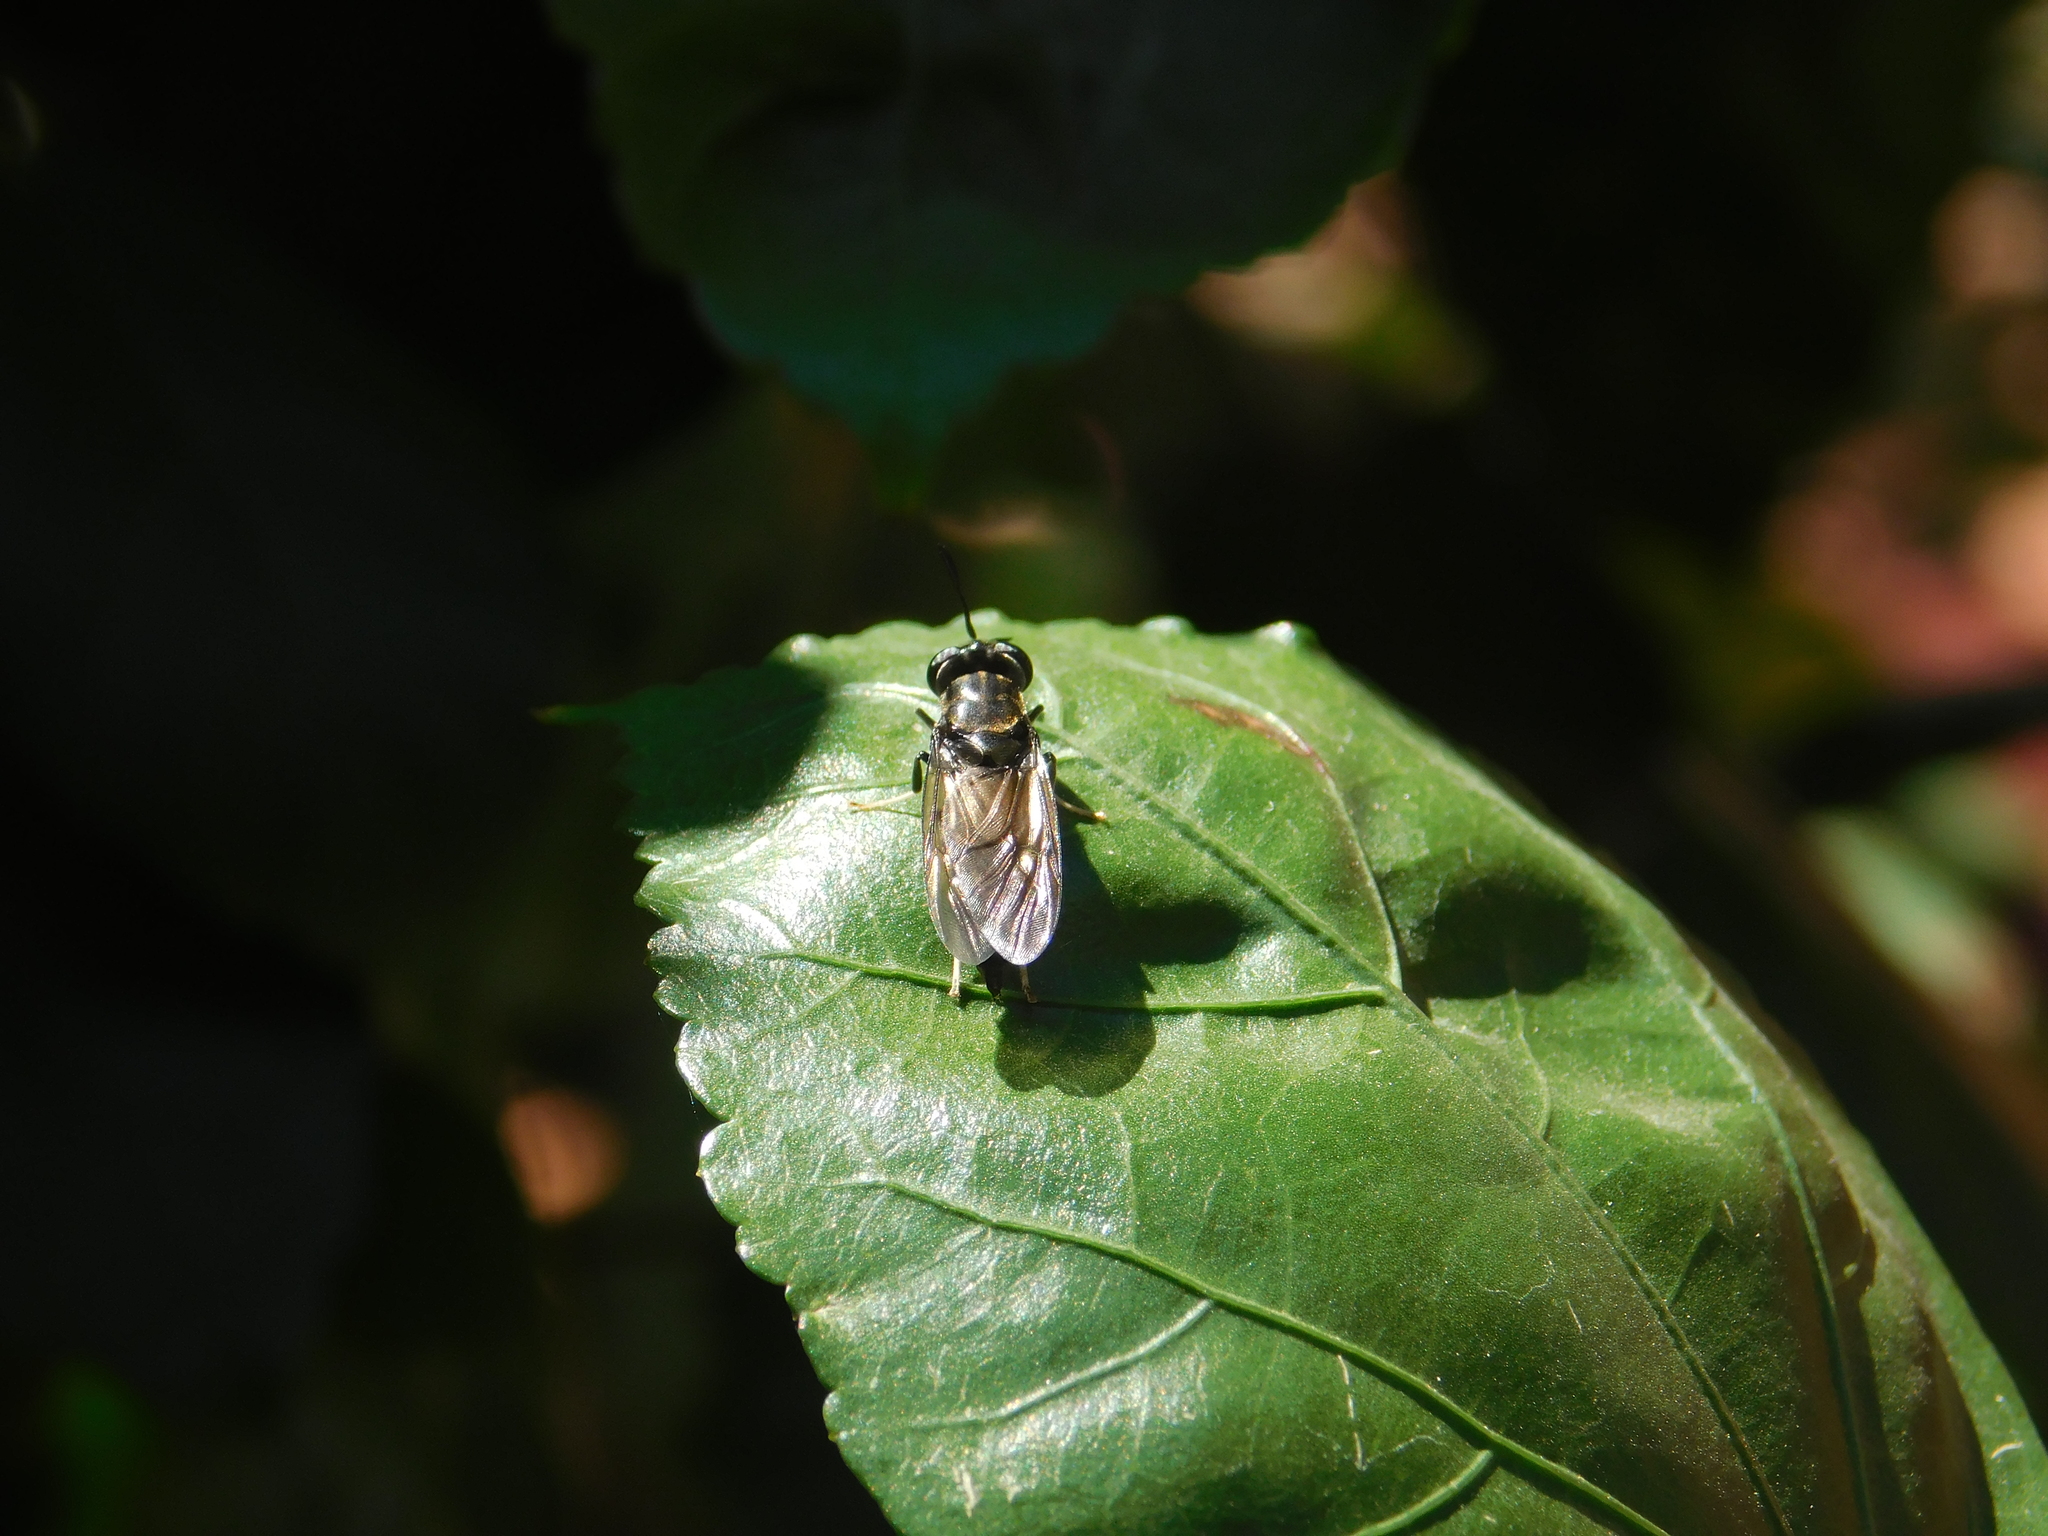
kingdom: Animalia
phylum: Arthropoda
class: Insecta
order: Diptera
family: Stratiomyidae
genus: Hermetia
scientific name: Hermetia illucens
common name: Black soldier fly
